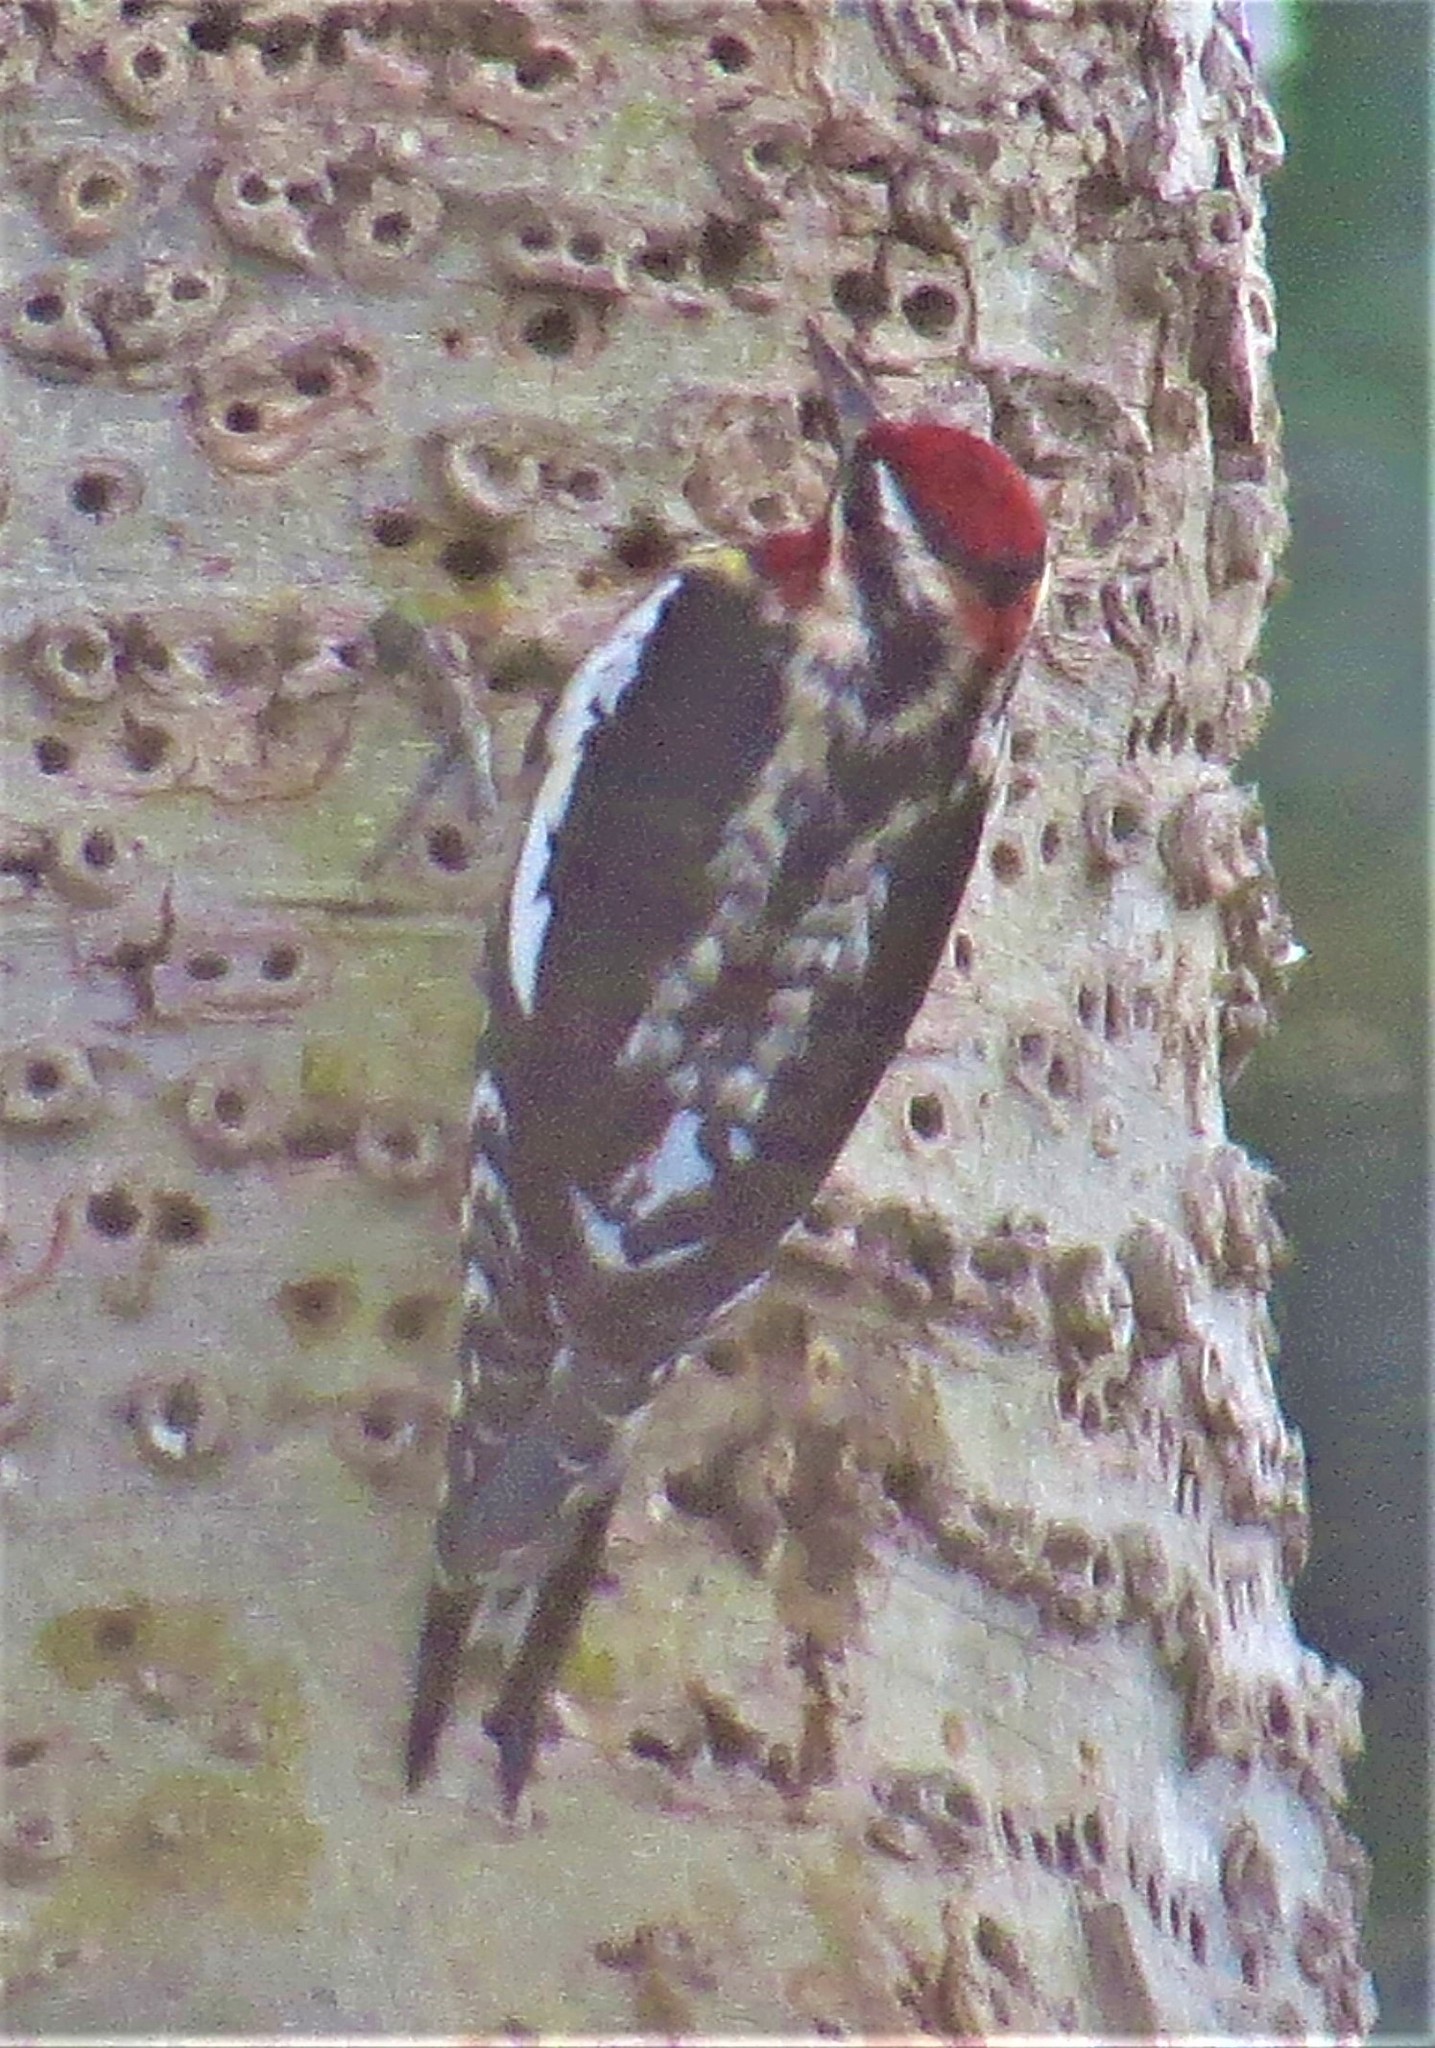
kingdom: Animalia
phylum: Chordata
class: Aves
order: Piciformes
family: Picidae
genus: Sphyrapicus
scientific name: Sphyrapicus nuchalis
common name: Red-naped sapsucker
